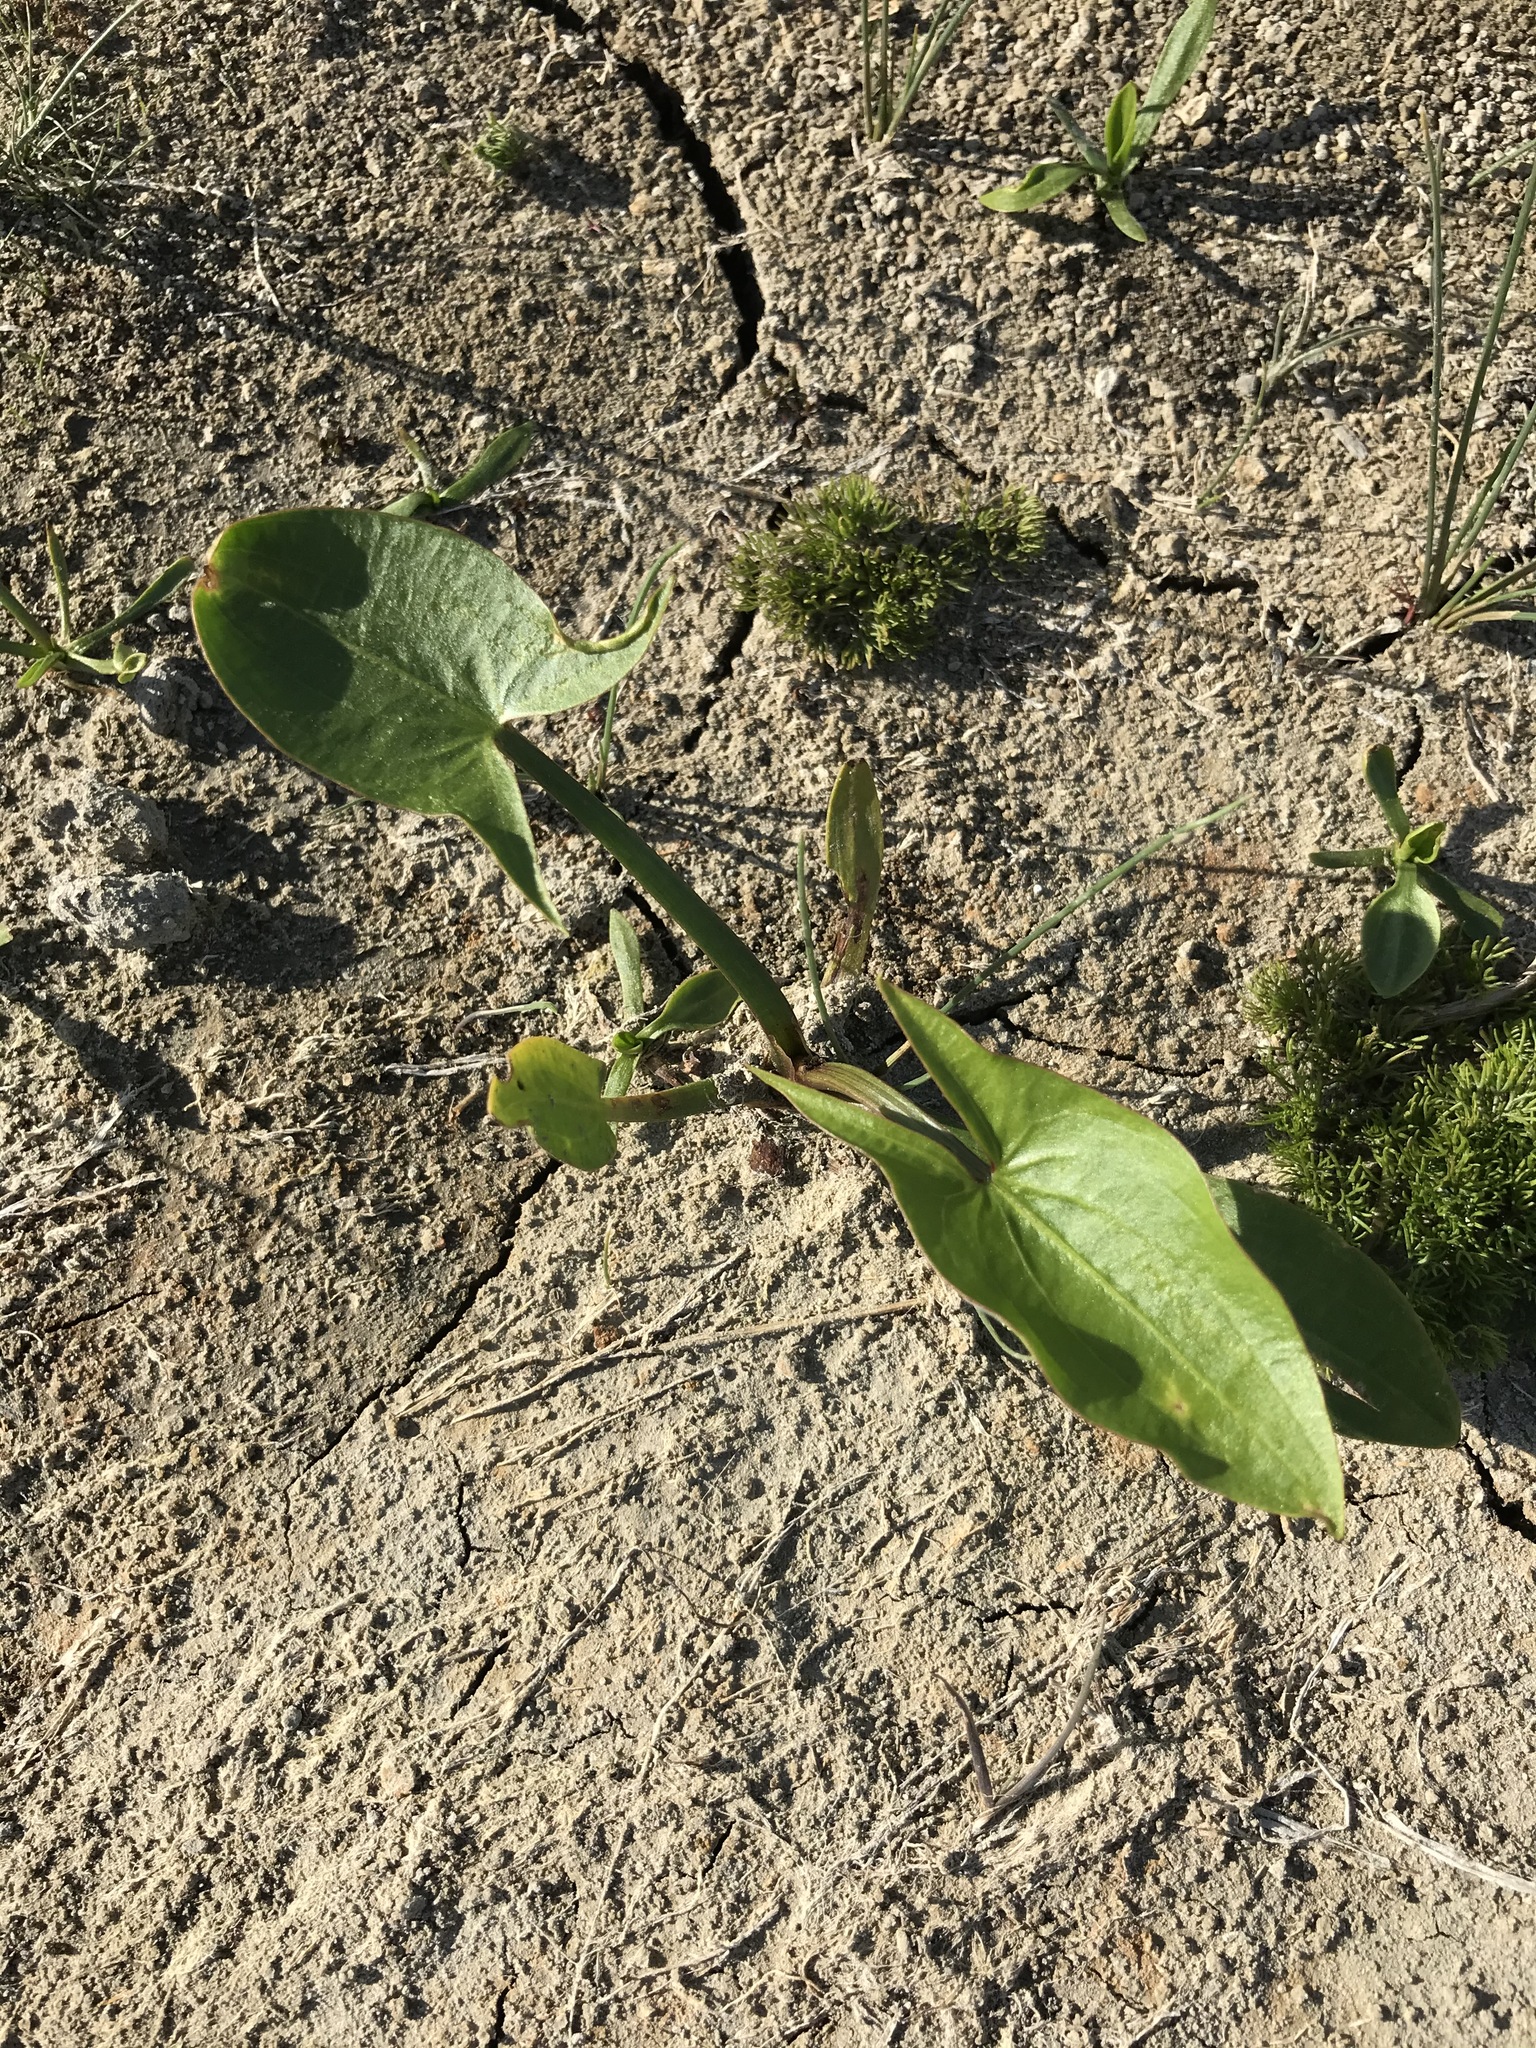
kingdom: Plantae
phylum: Tracheophyta
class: Liliopsida
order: Alismatales
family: Alismataceae
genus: Sagittaria
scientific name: Sagittaria cuneata
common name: Northern arrowhead
